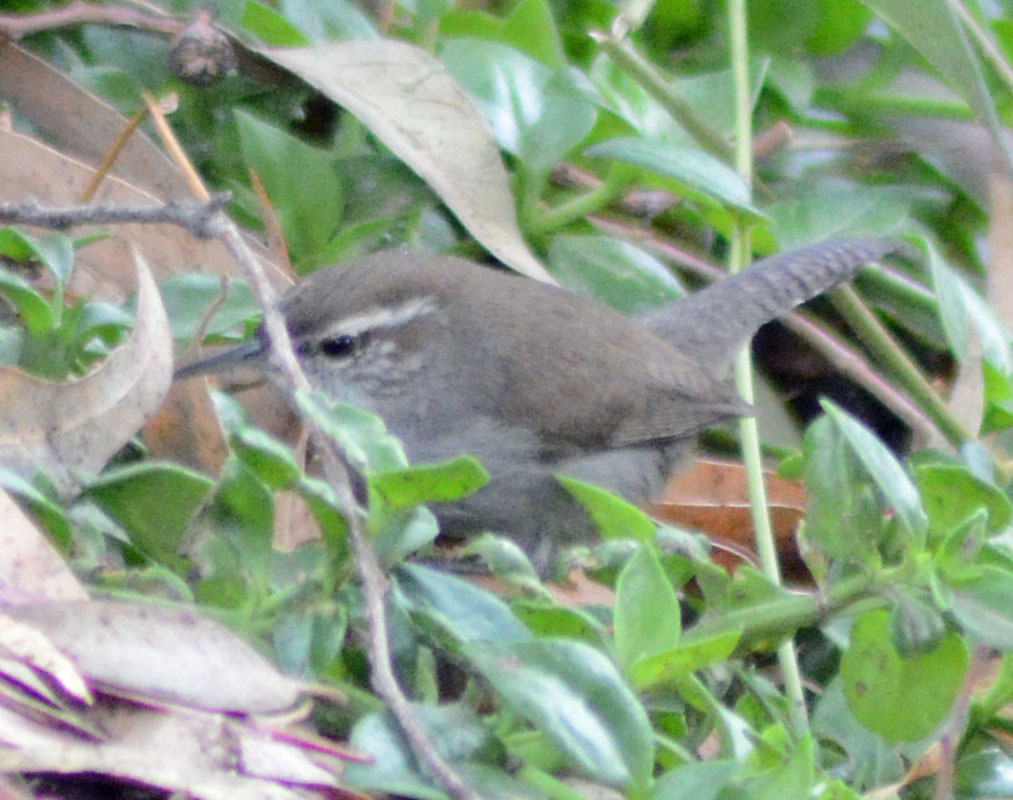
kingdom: Animalia
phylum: Chordata
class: Aves
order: Passeriformes
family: Troglodytidae
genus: Thryomanes
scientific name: Thryomanes bewickii
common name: Bewick's wren
